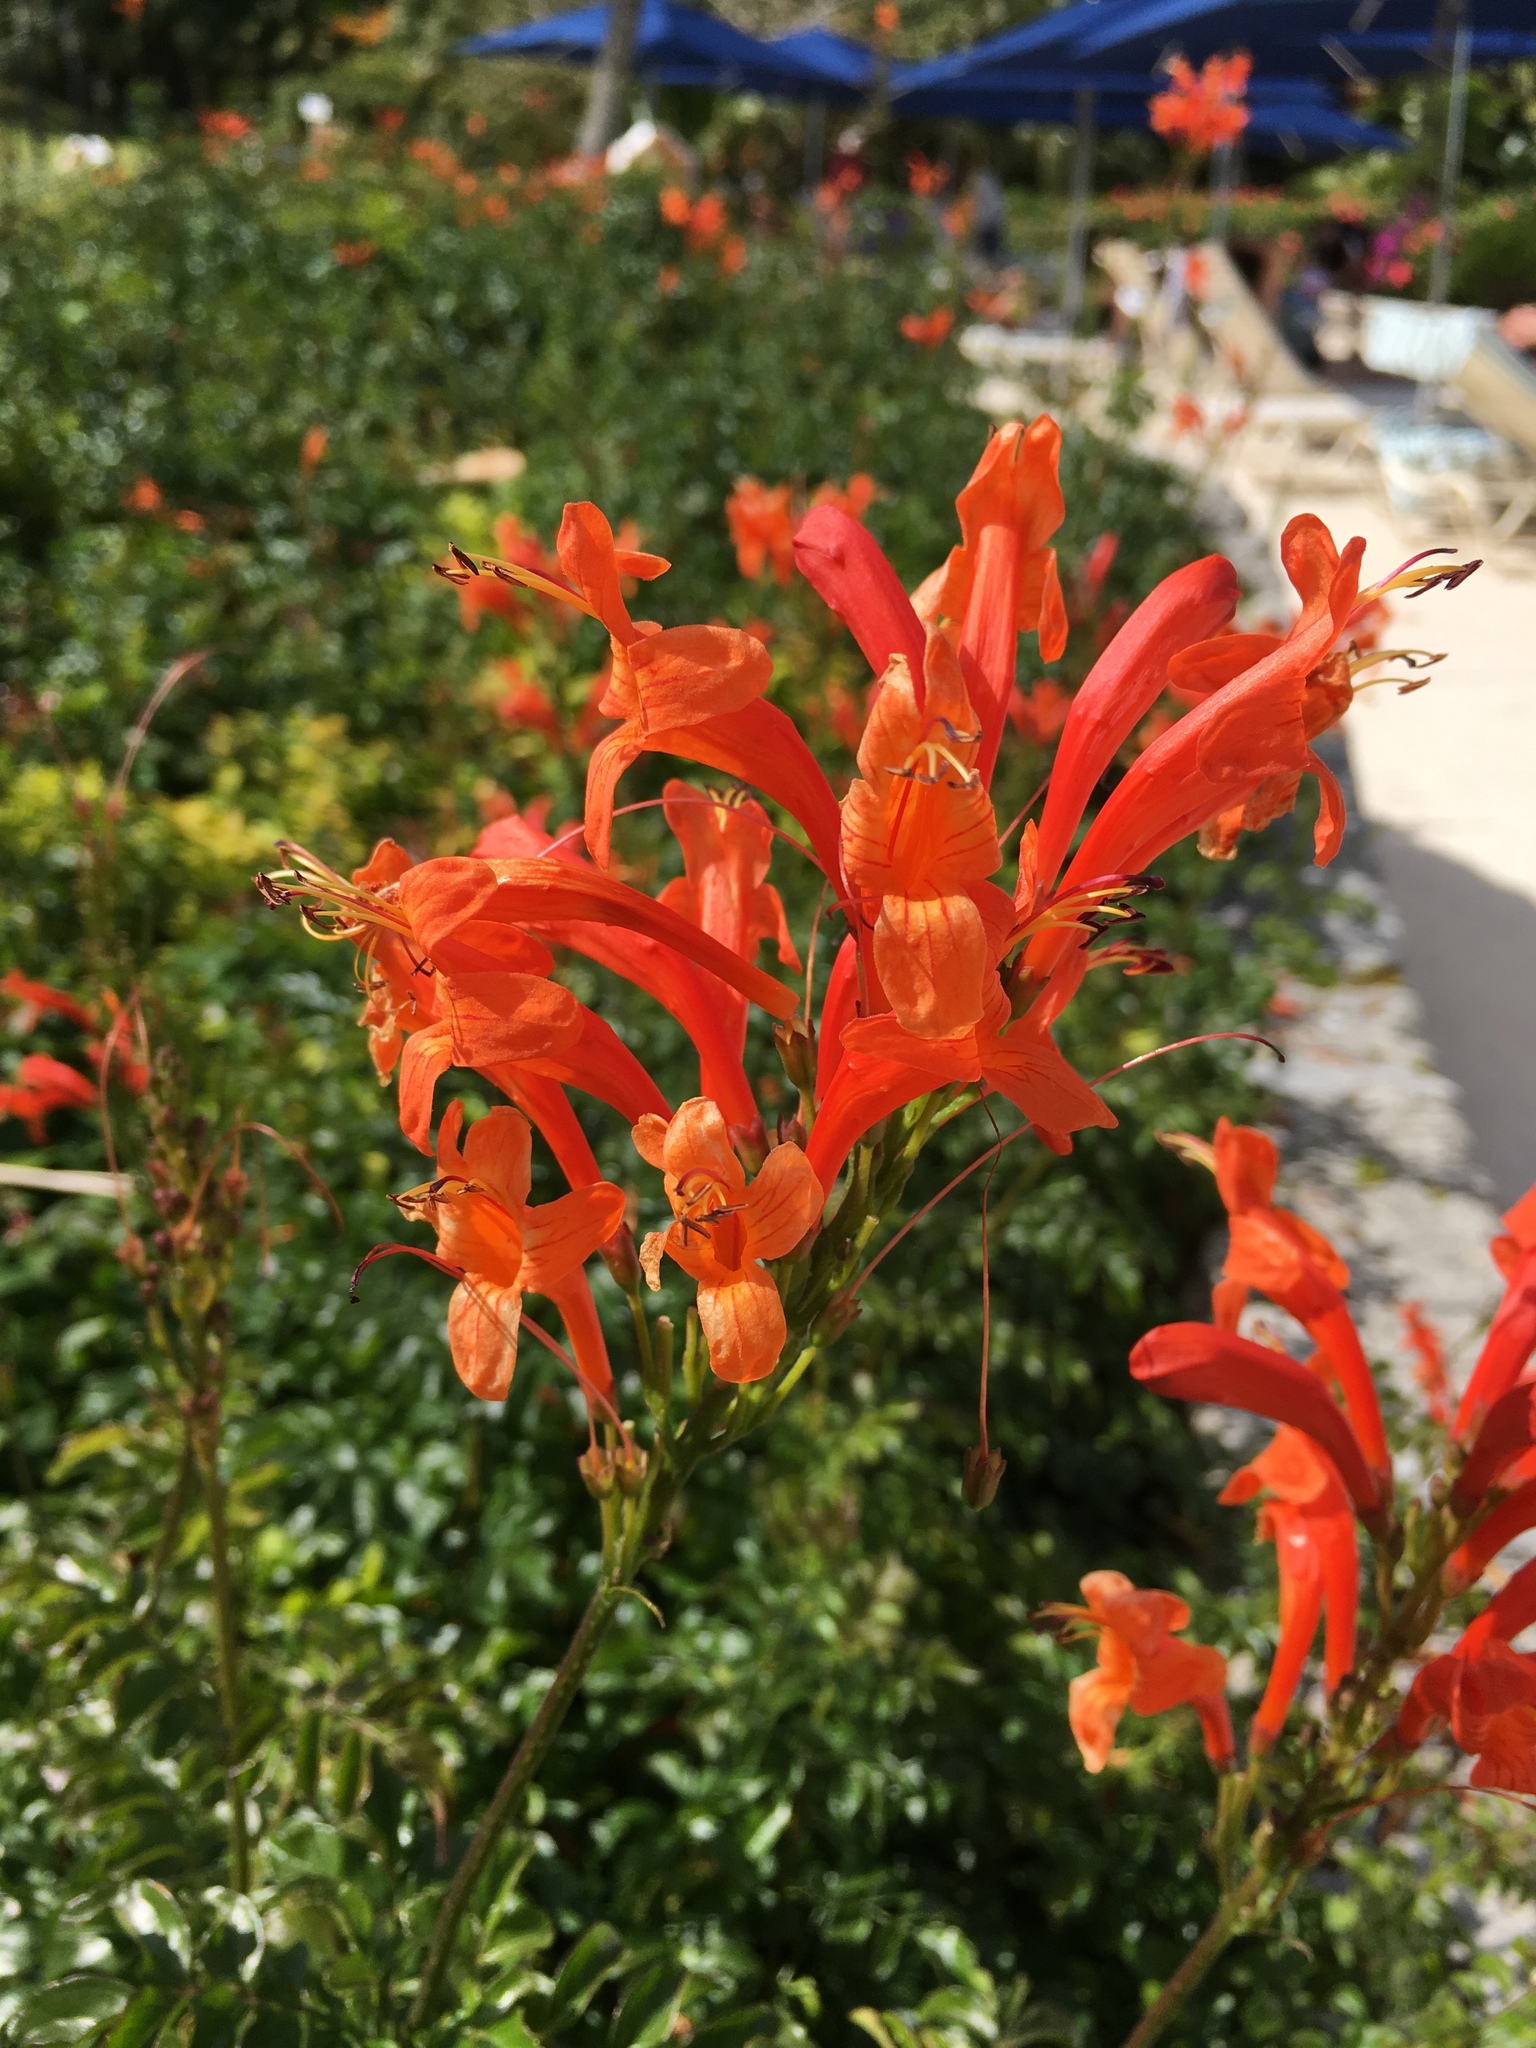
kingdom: Plantae
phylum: Tracheophyta
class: Magnoliopsida
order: Lamiales
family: Bignoniaceae
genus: Tecomaria
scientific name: Tecomaria capensis
